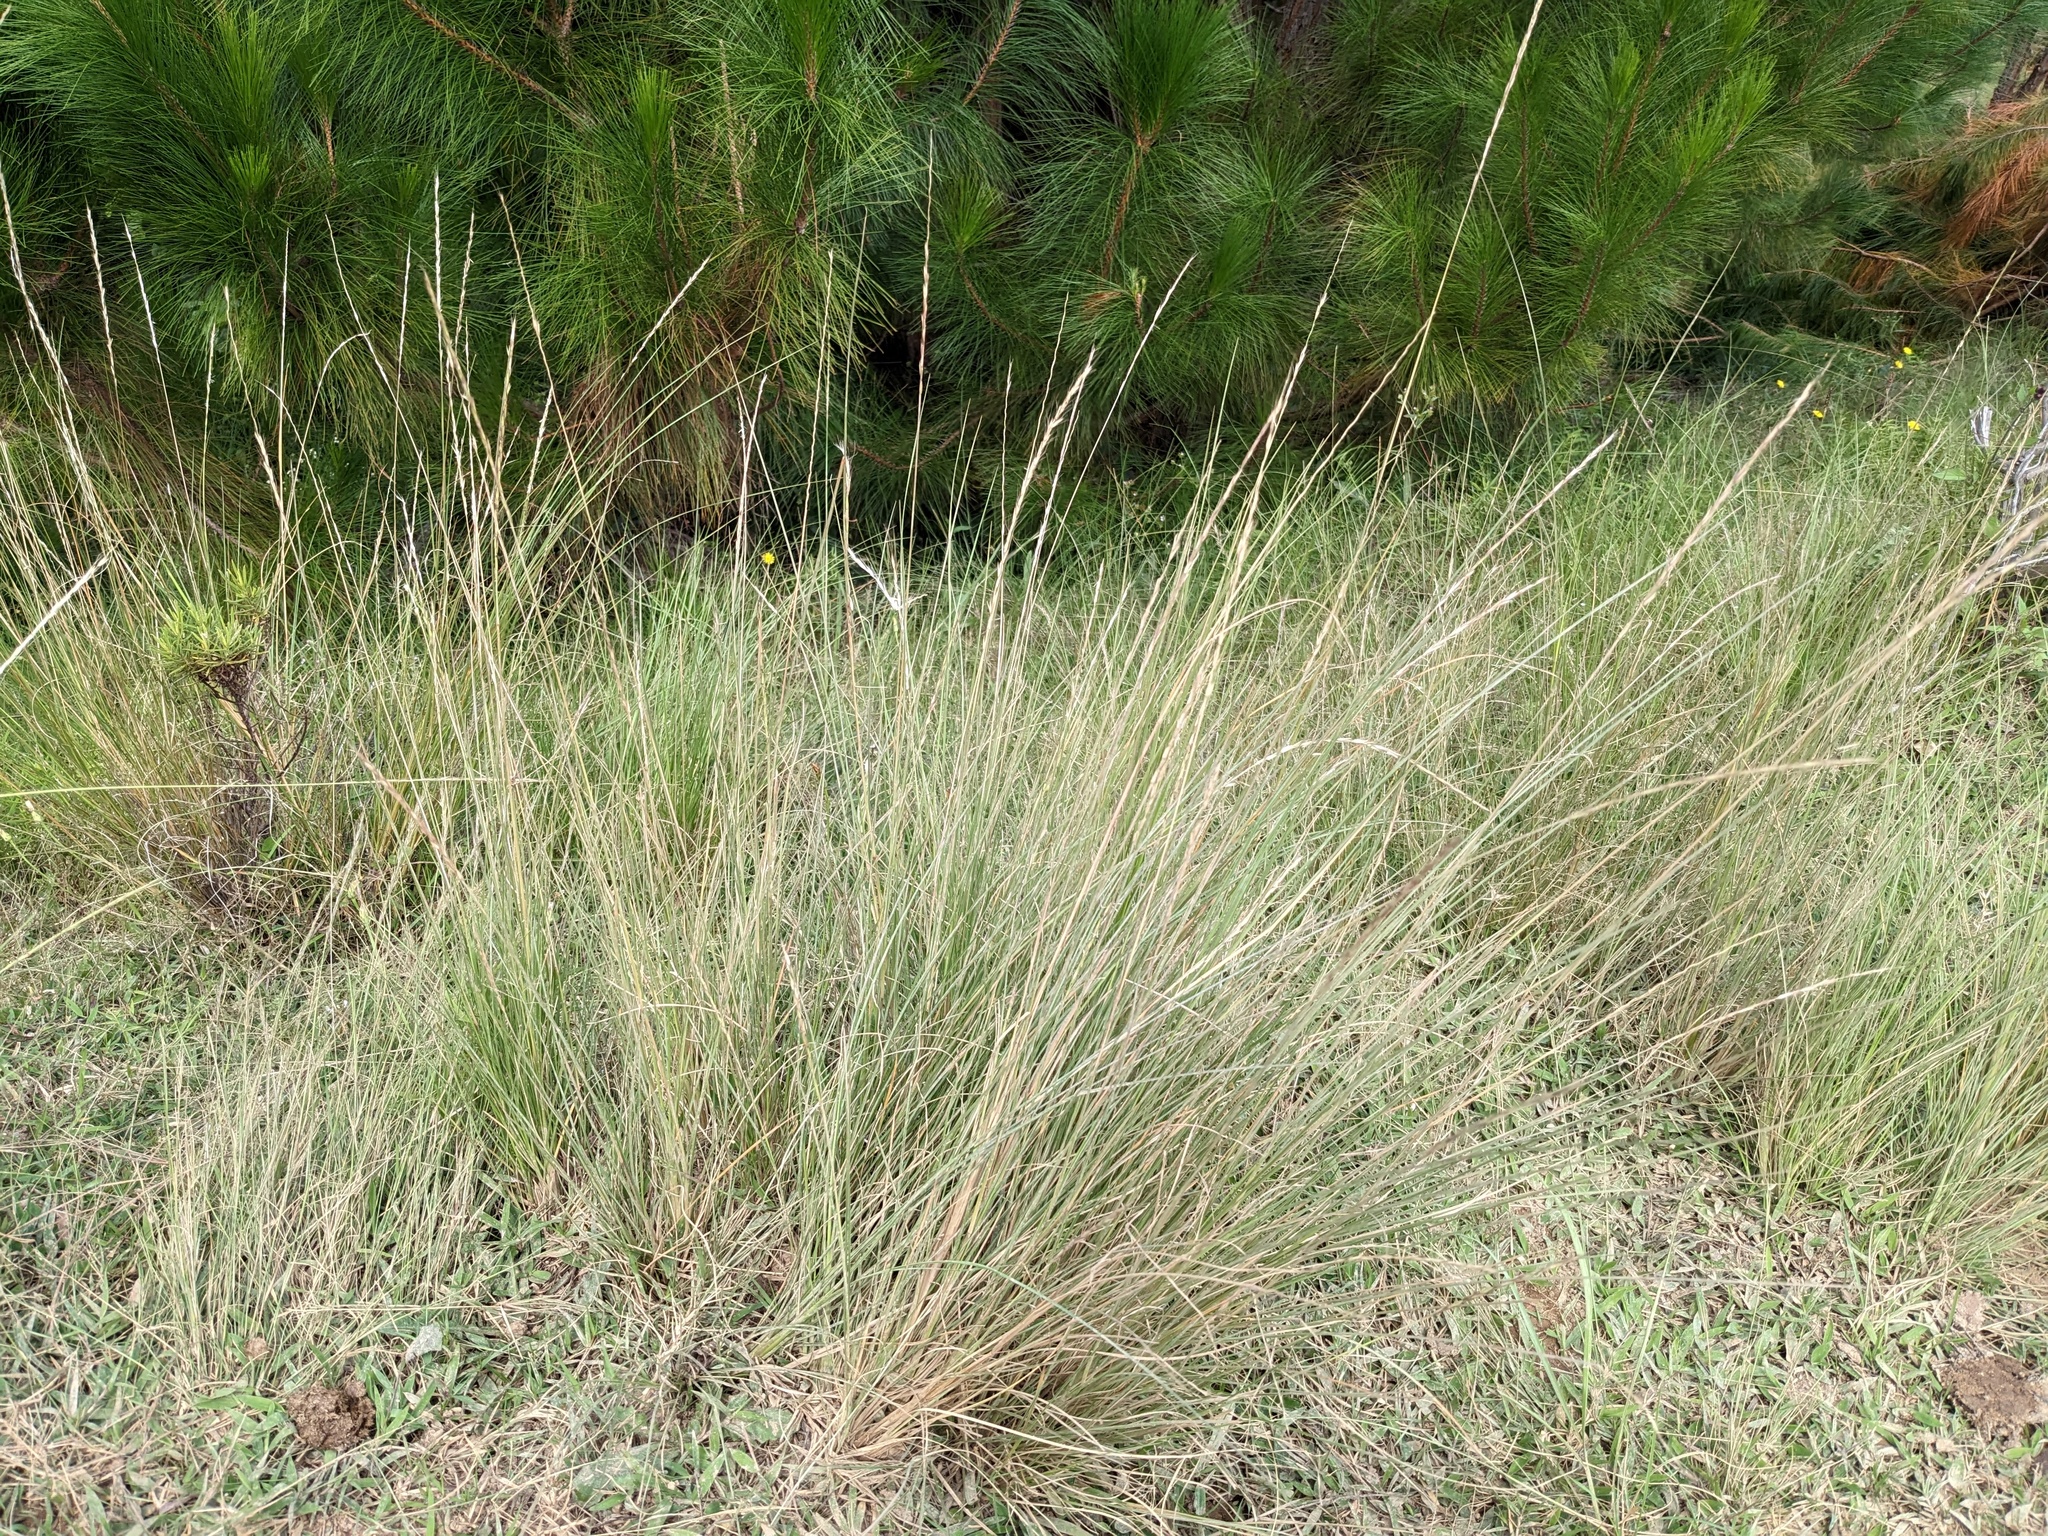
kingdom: Plantae
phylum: Tracheophyta
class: Liliopsida
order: Poales
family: Poaceae
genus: Cenchrus
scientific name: Cenchrus pseudotriticoides
